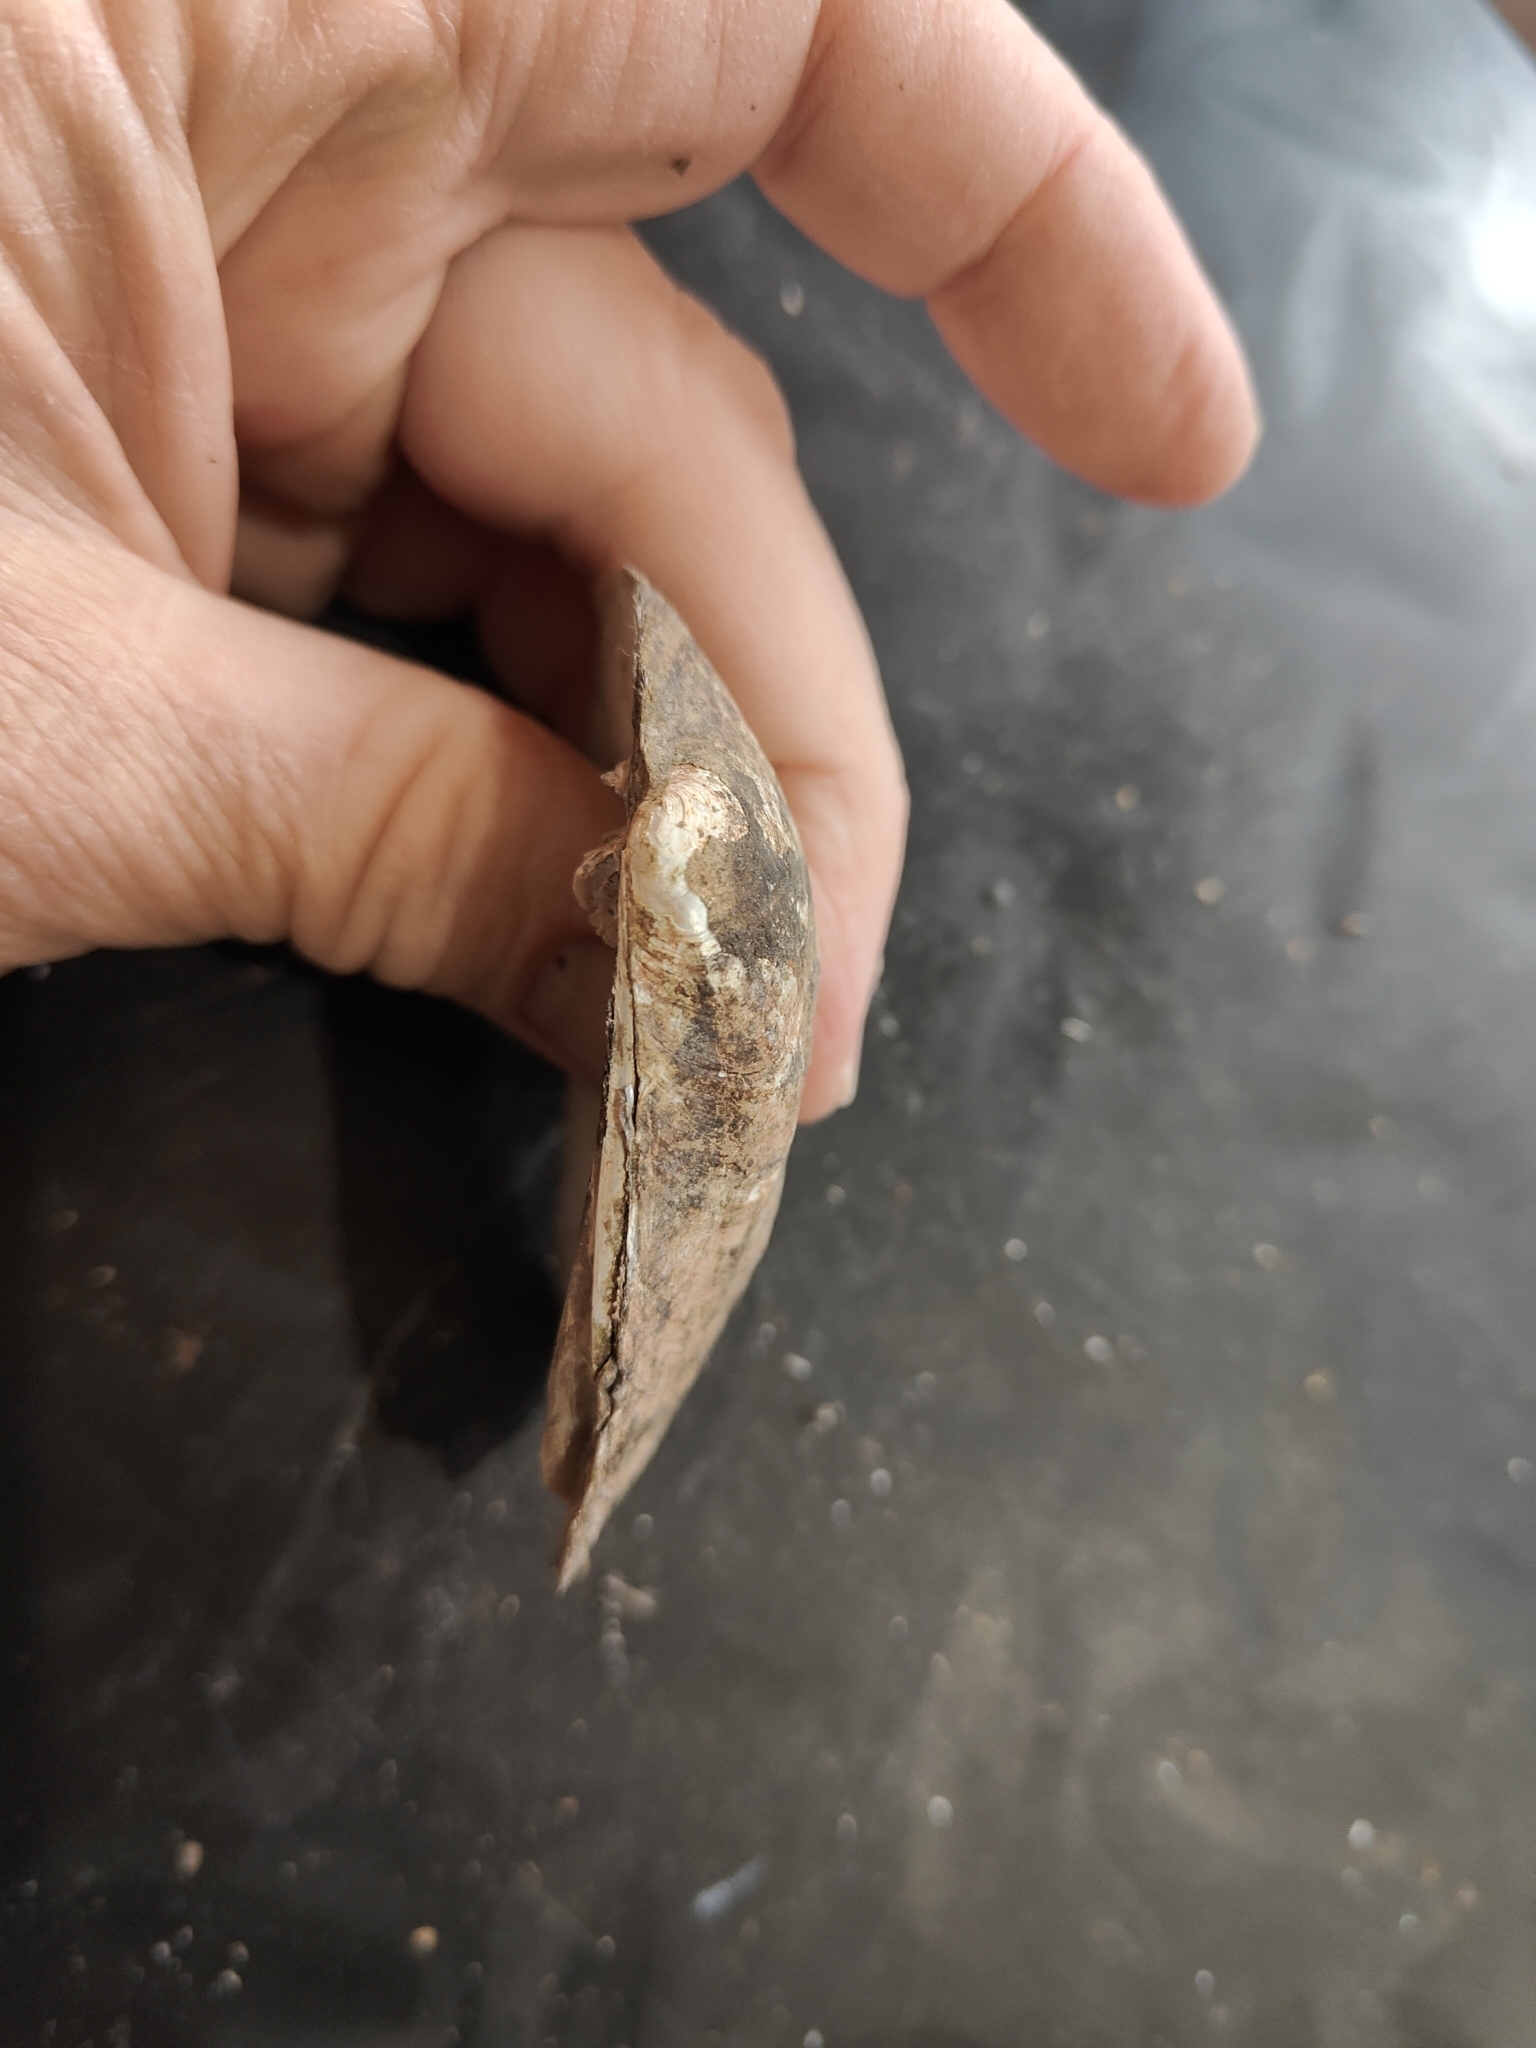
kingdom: Animalia
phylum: Mollusca
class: Bivalvia
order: Unionida
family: Unionidae
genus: Amblema
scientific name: Amblema plicata
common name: Threeridge
